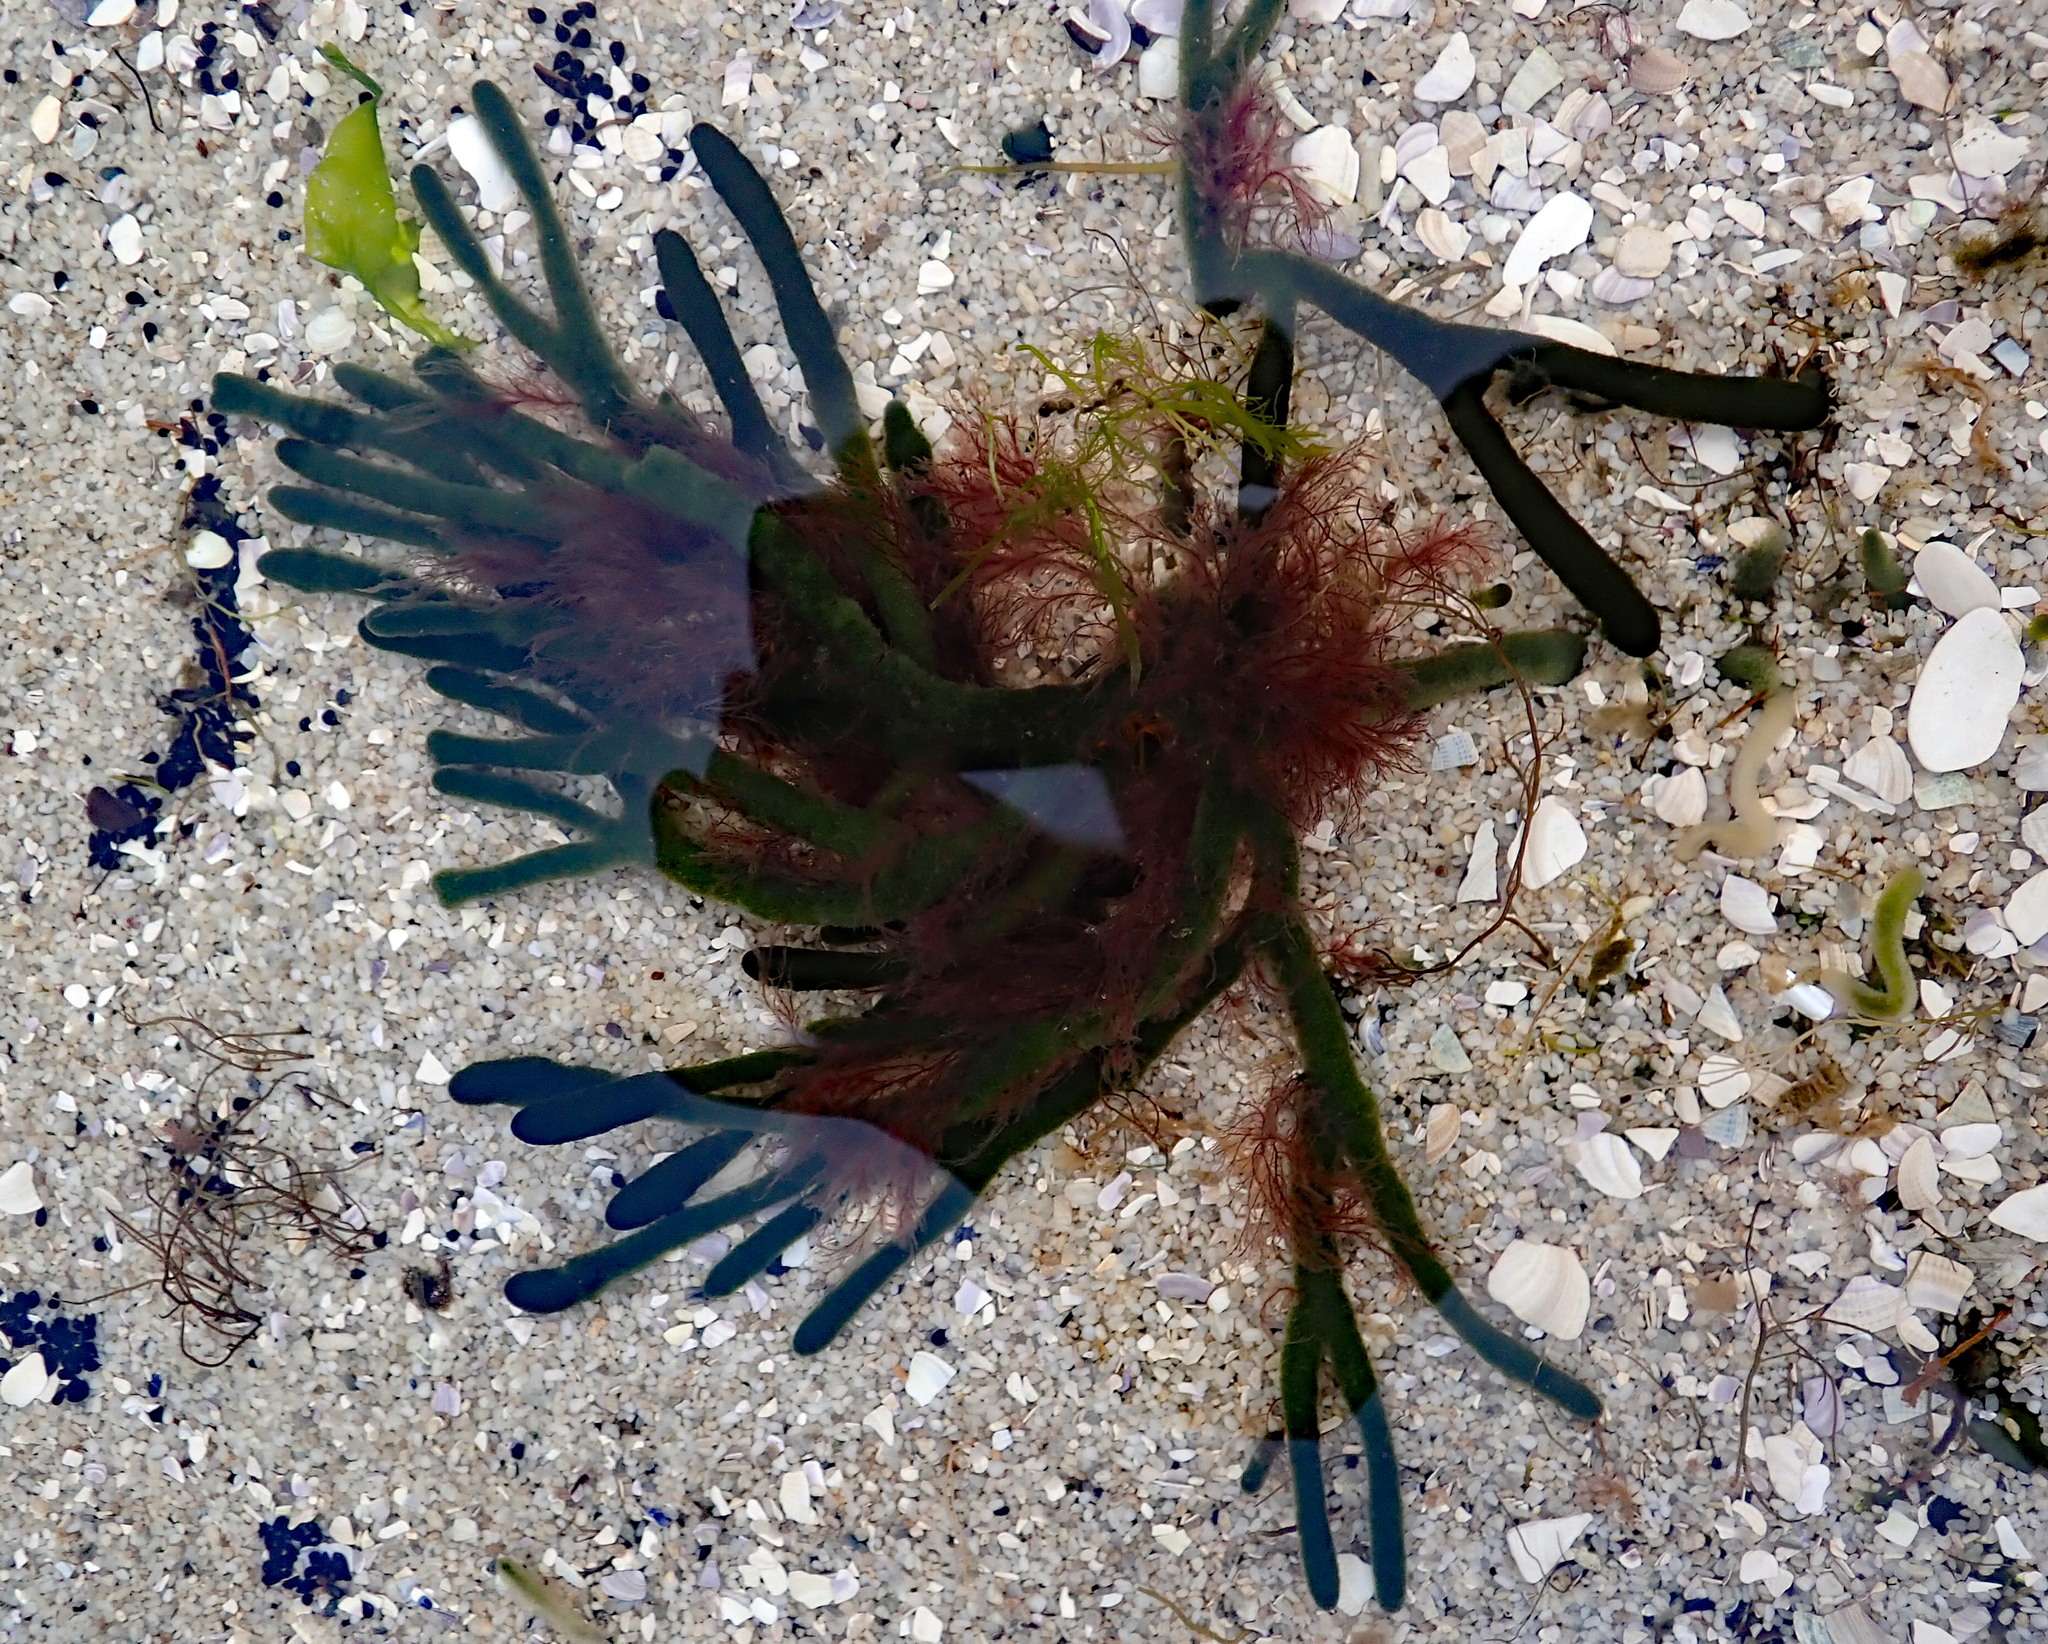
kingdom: Plantae
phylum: Chlorophyta
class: Ulvophyceae
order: Bryopsidales
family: Codiaceae
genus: Codium
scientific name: Codium fragile
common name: Dead man's fingers
